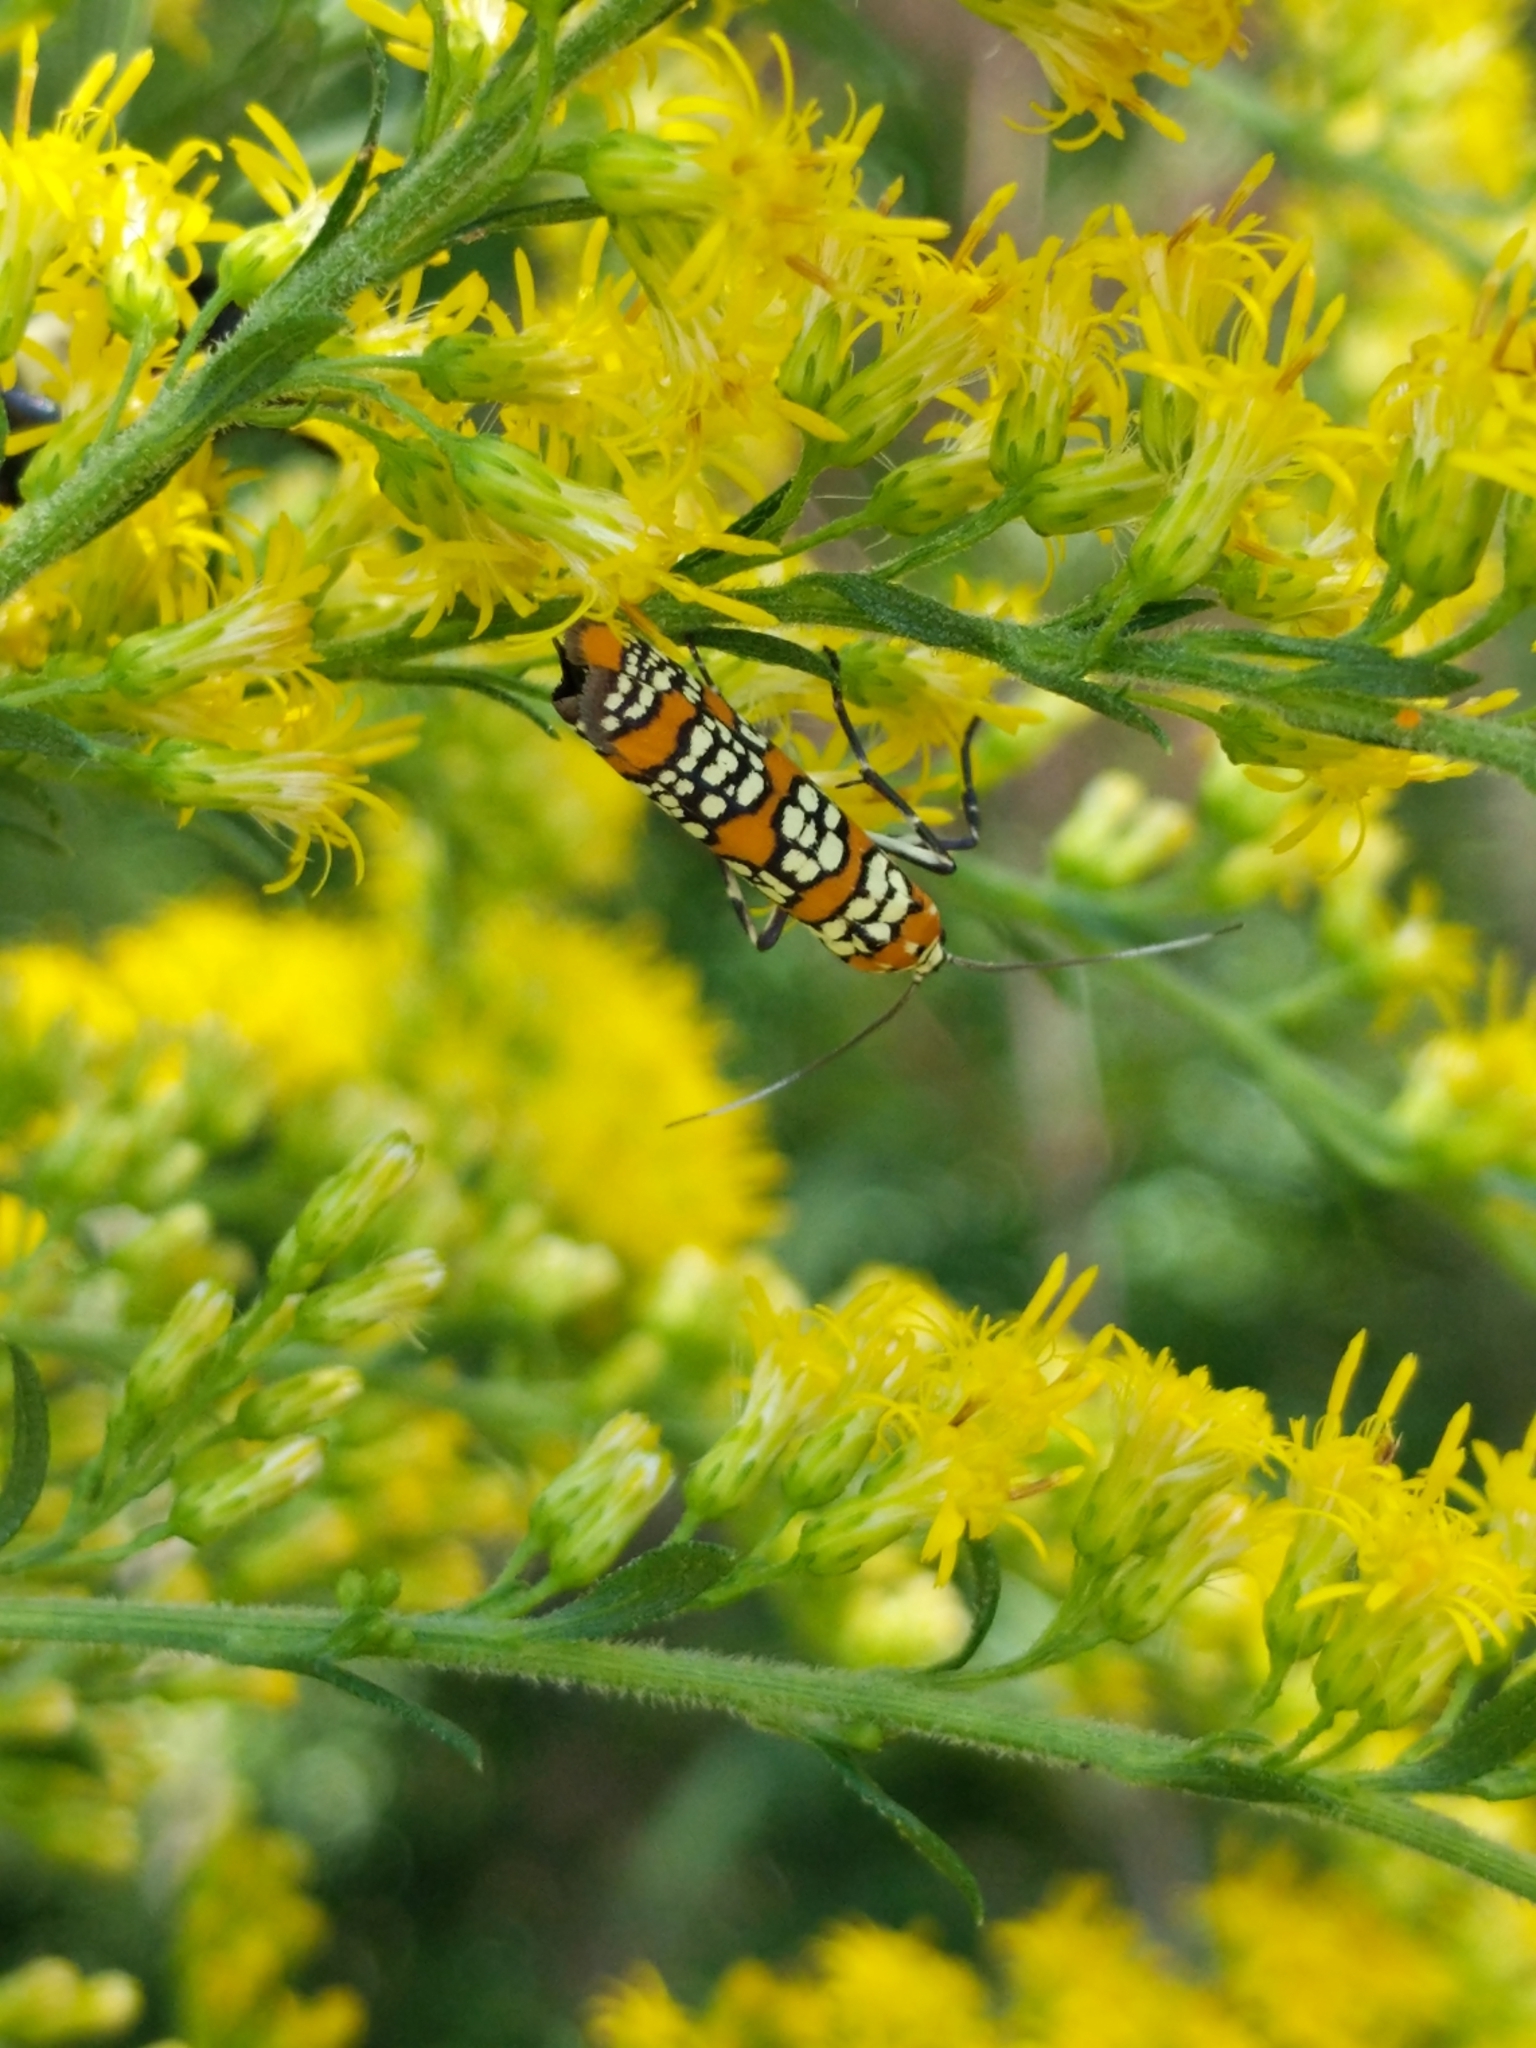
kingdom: Animalia
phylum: Arthropoda
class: Insecta
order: Lepidoptera
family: Attevidae
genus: Atteva
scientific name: Atteva punctella
